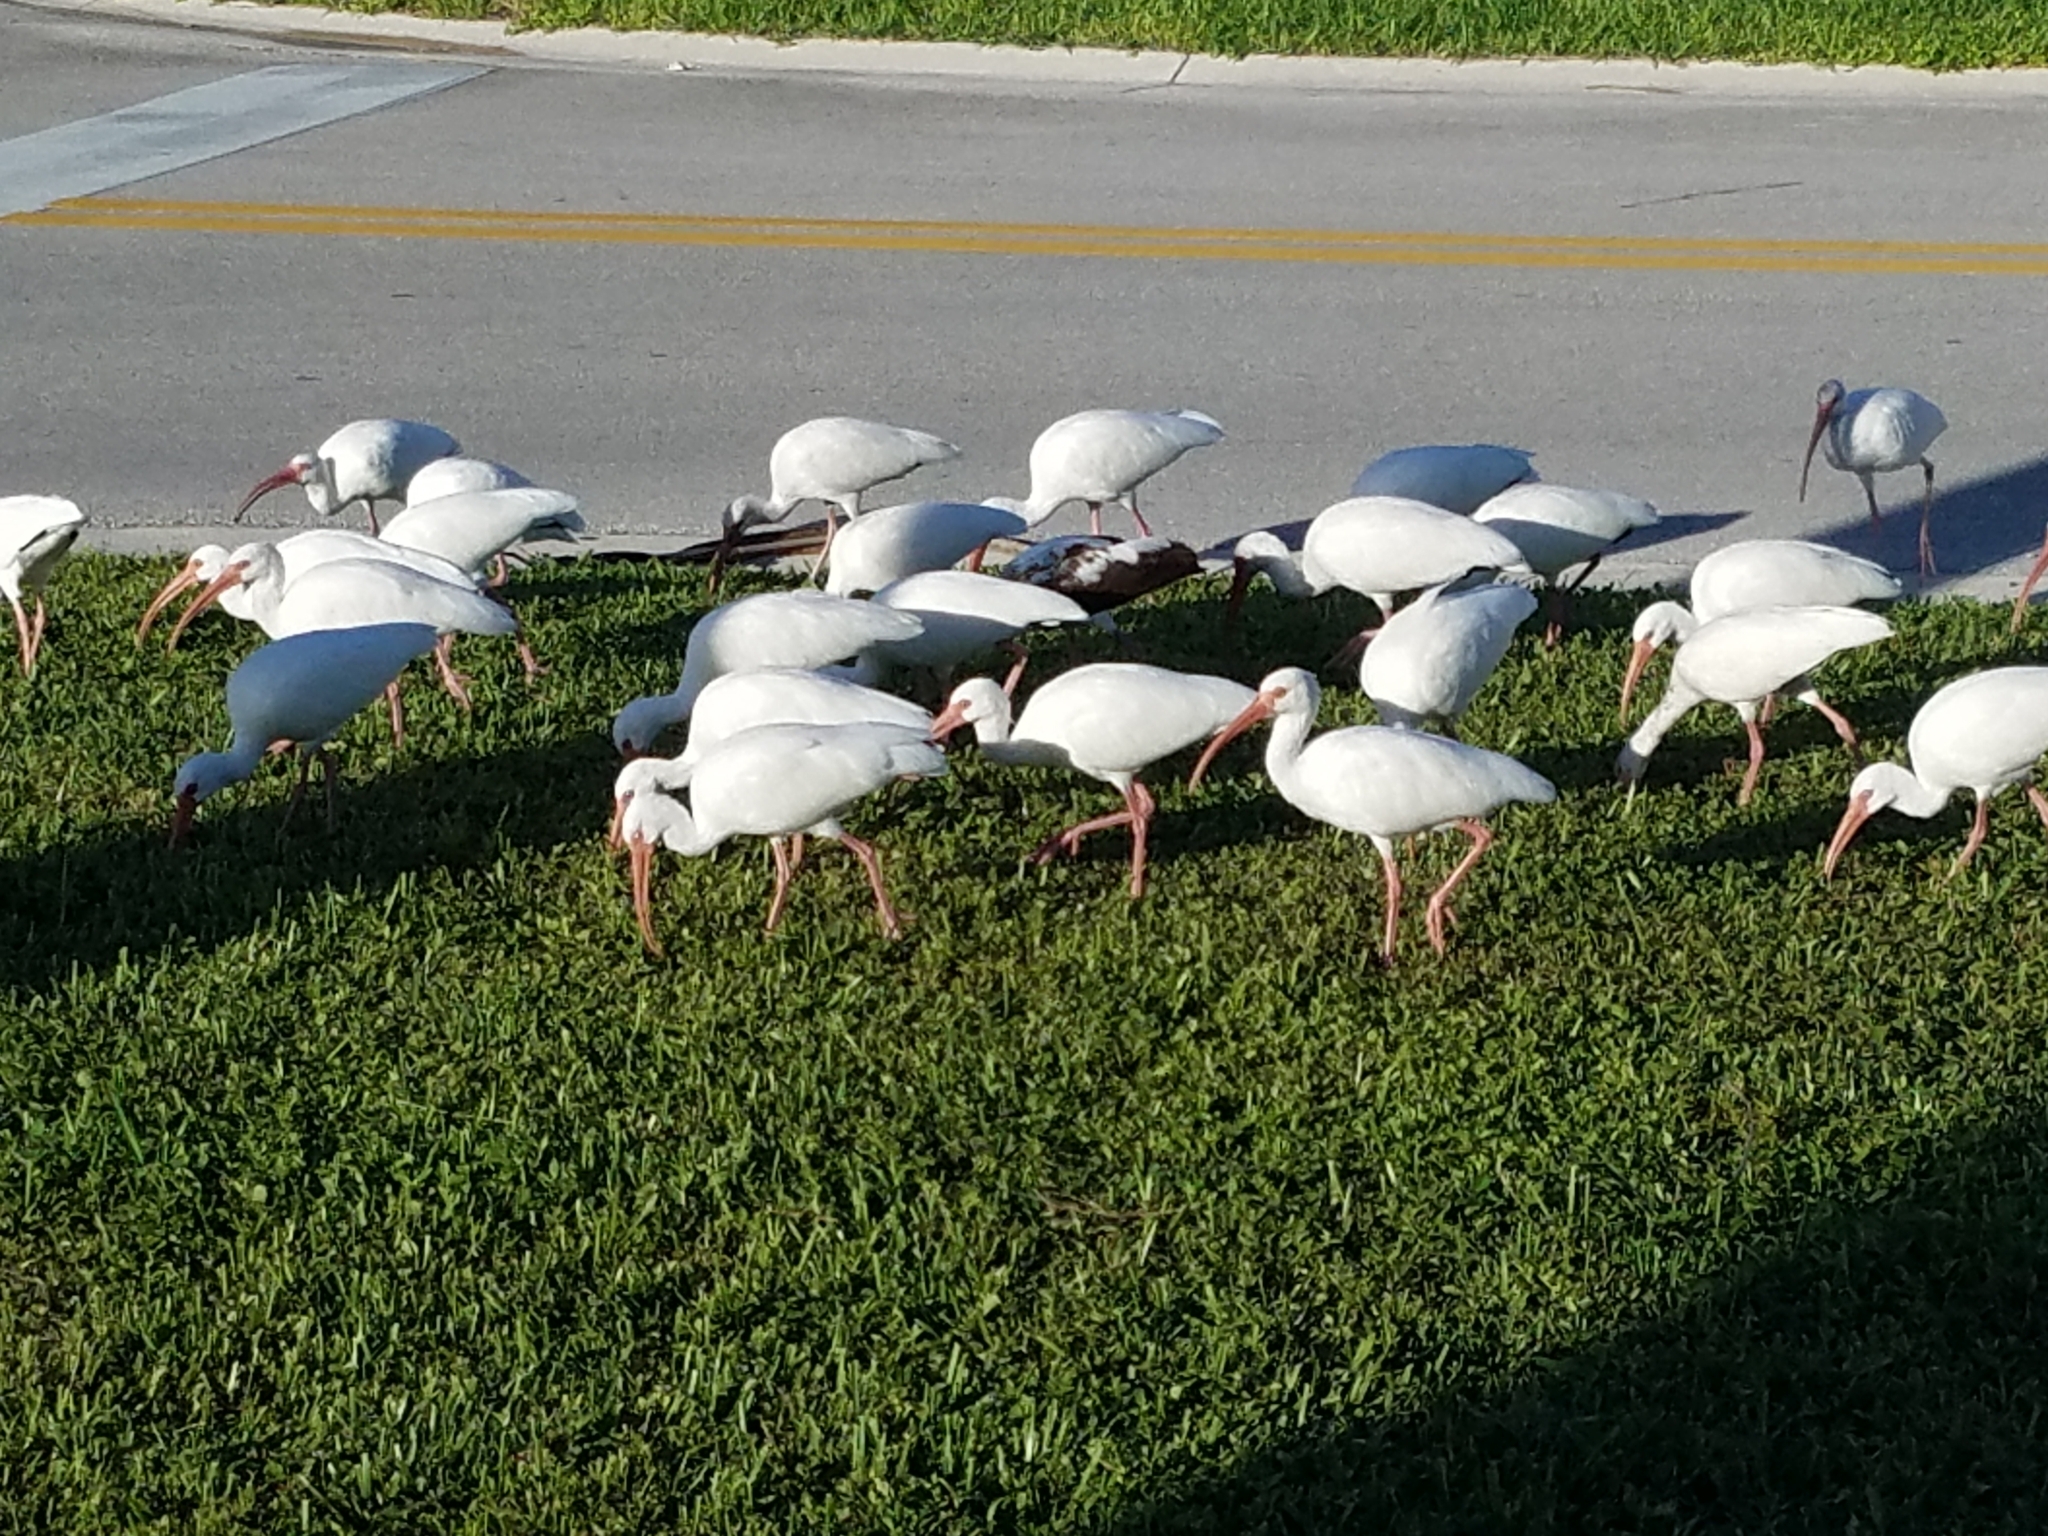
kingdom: Animalia
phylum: Chordata
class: Aves
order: Pelecaniformes
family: Threskiornithidae
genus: Eudocimus
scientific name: Eudocimus albus
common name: White ibis
